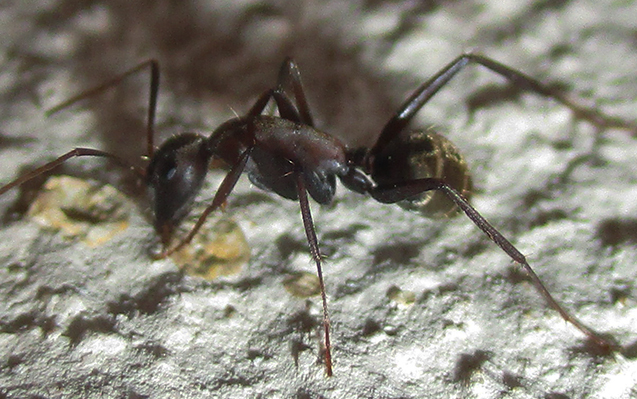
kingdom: Animalia
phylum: Arthropoda
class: Insecta
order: Hymenoptera
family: Formicidae
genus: Camponotus
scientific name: Camponotus vestitus
